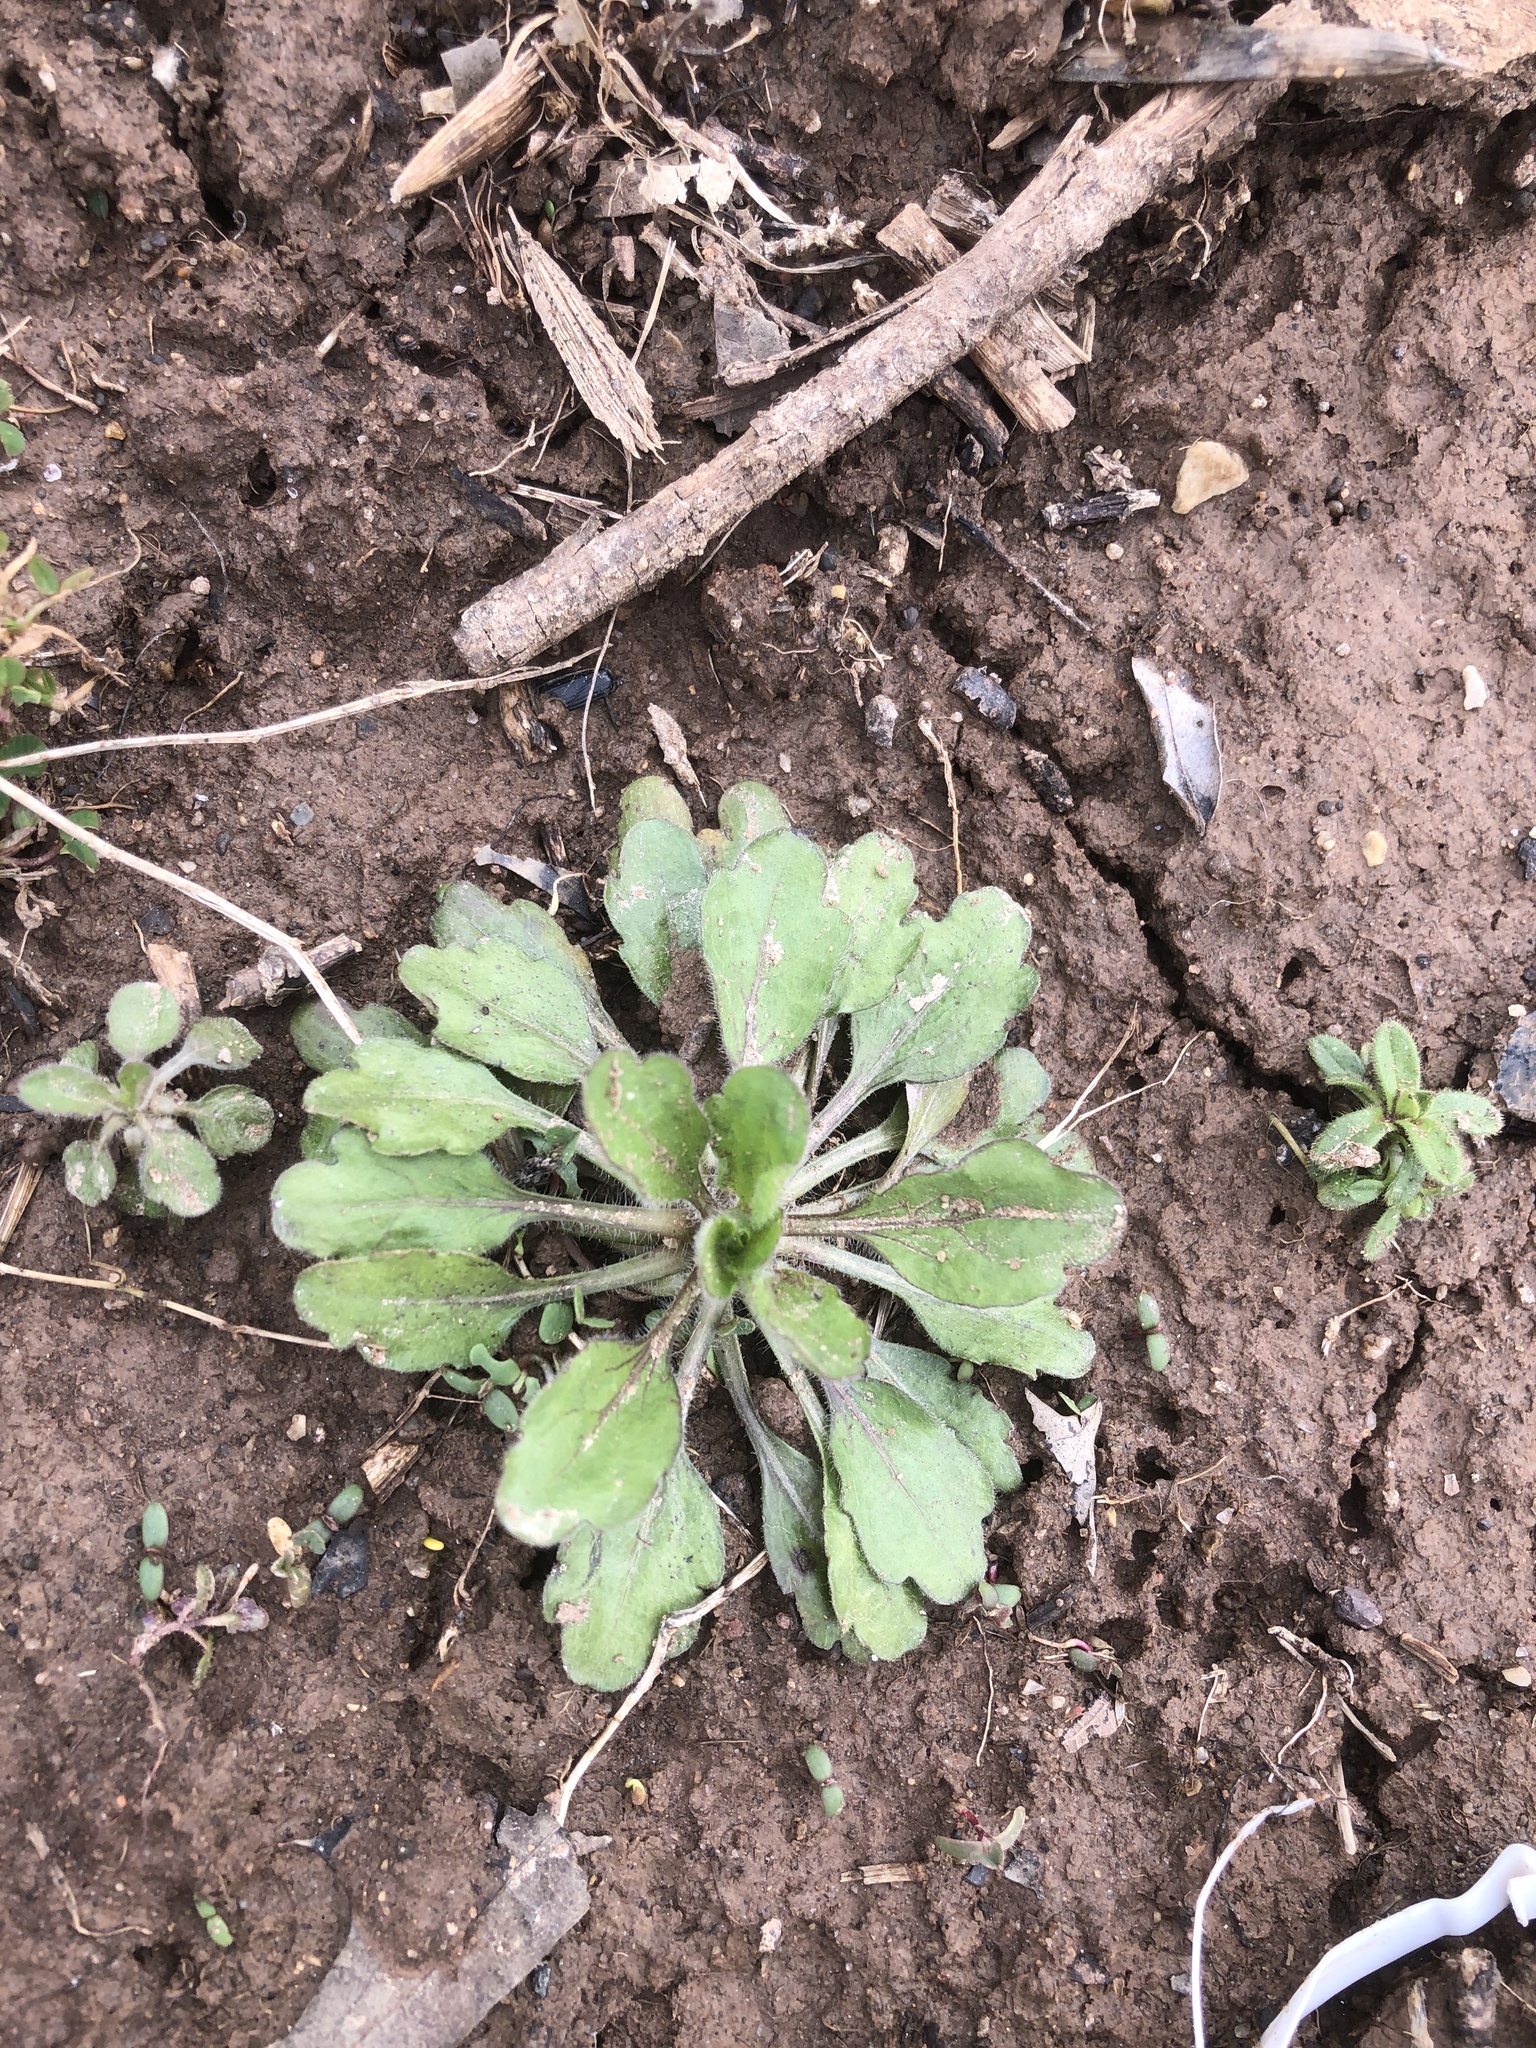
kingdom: Plantae
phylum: Tracheophyta
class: Magnoliopsida
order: Asterales
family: Asteraceae
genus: Erigeron
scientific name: Erigeron canadensis
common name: Canadian fleabane
